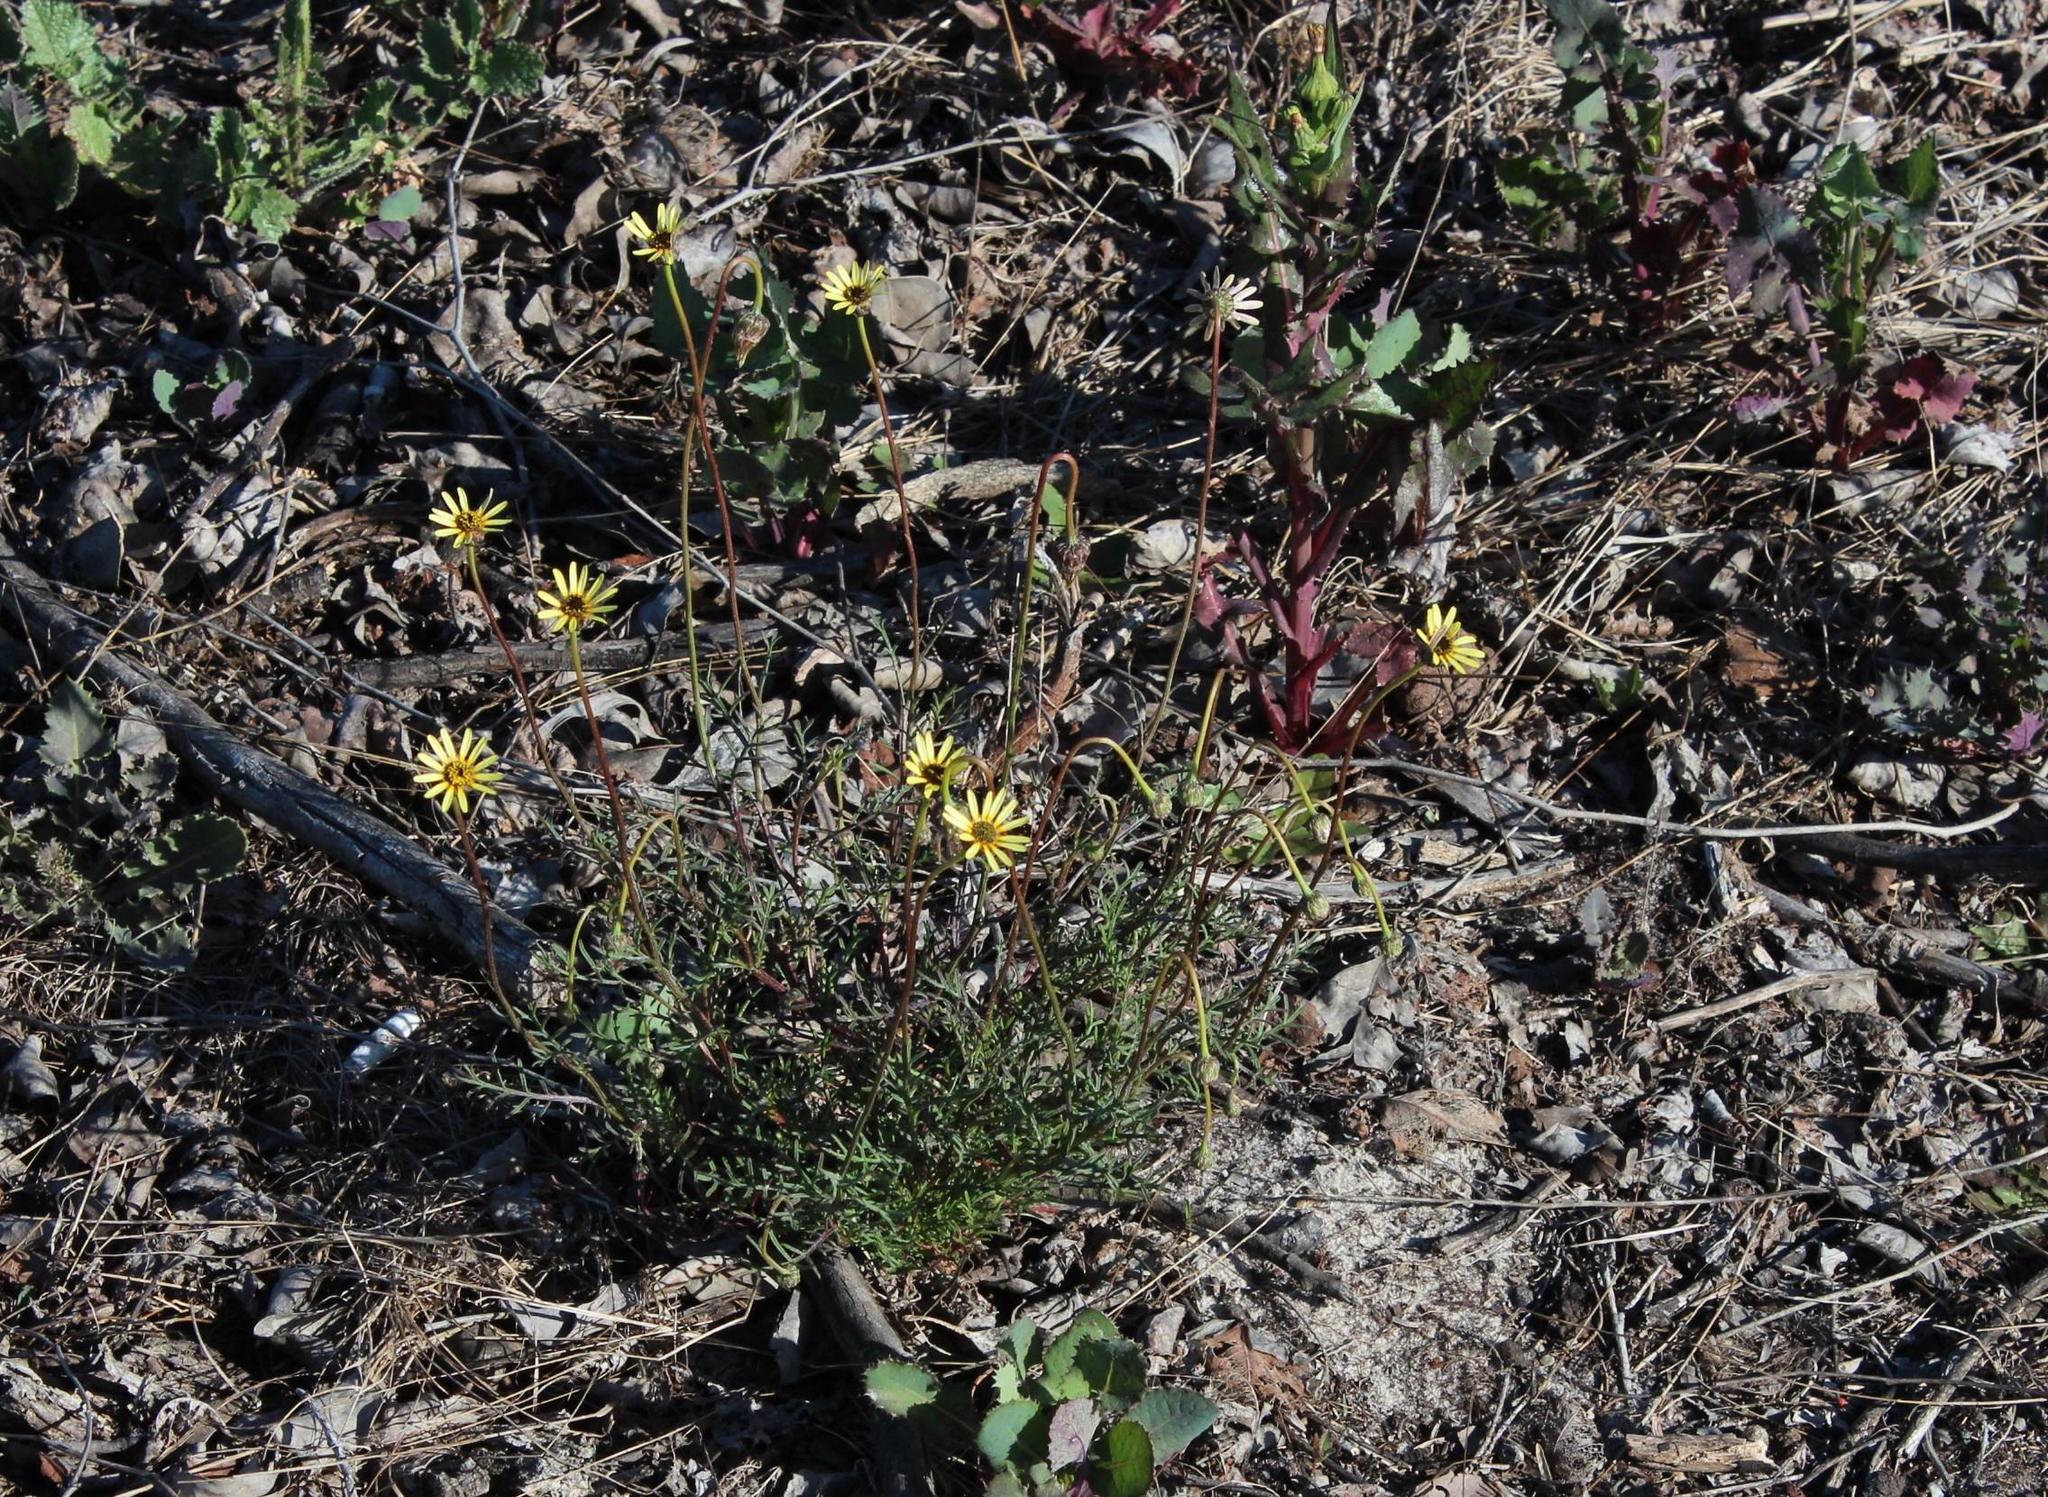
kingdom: Plantae
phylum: Tracheophyta
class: Magnoliopsida
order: Asterales
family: Asteraceae
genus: Ursinia
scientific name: Ursinia anthemoides
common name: Ursinia
